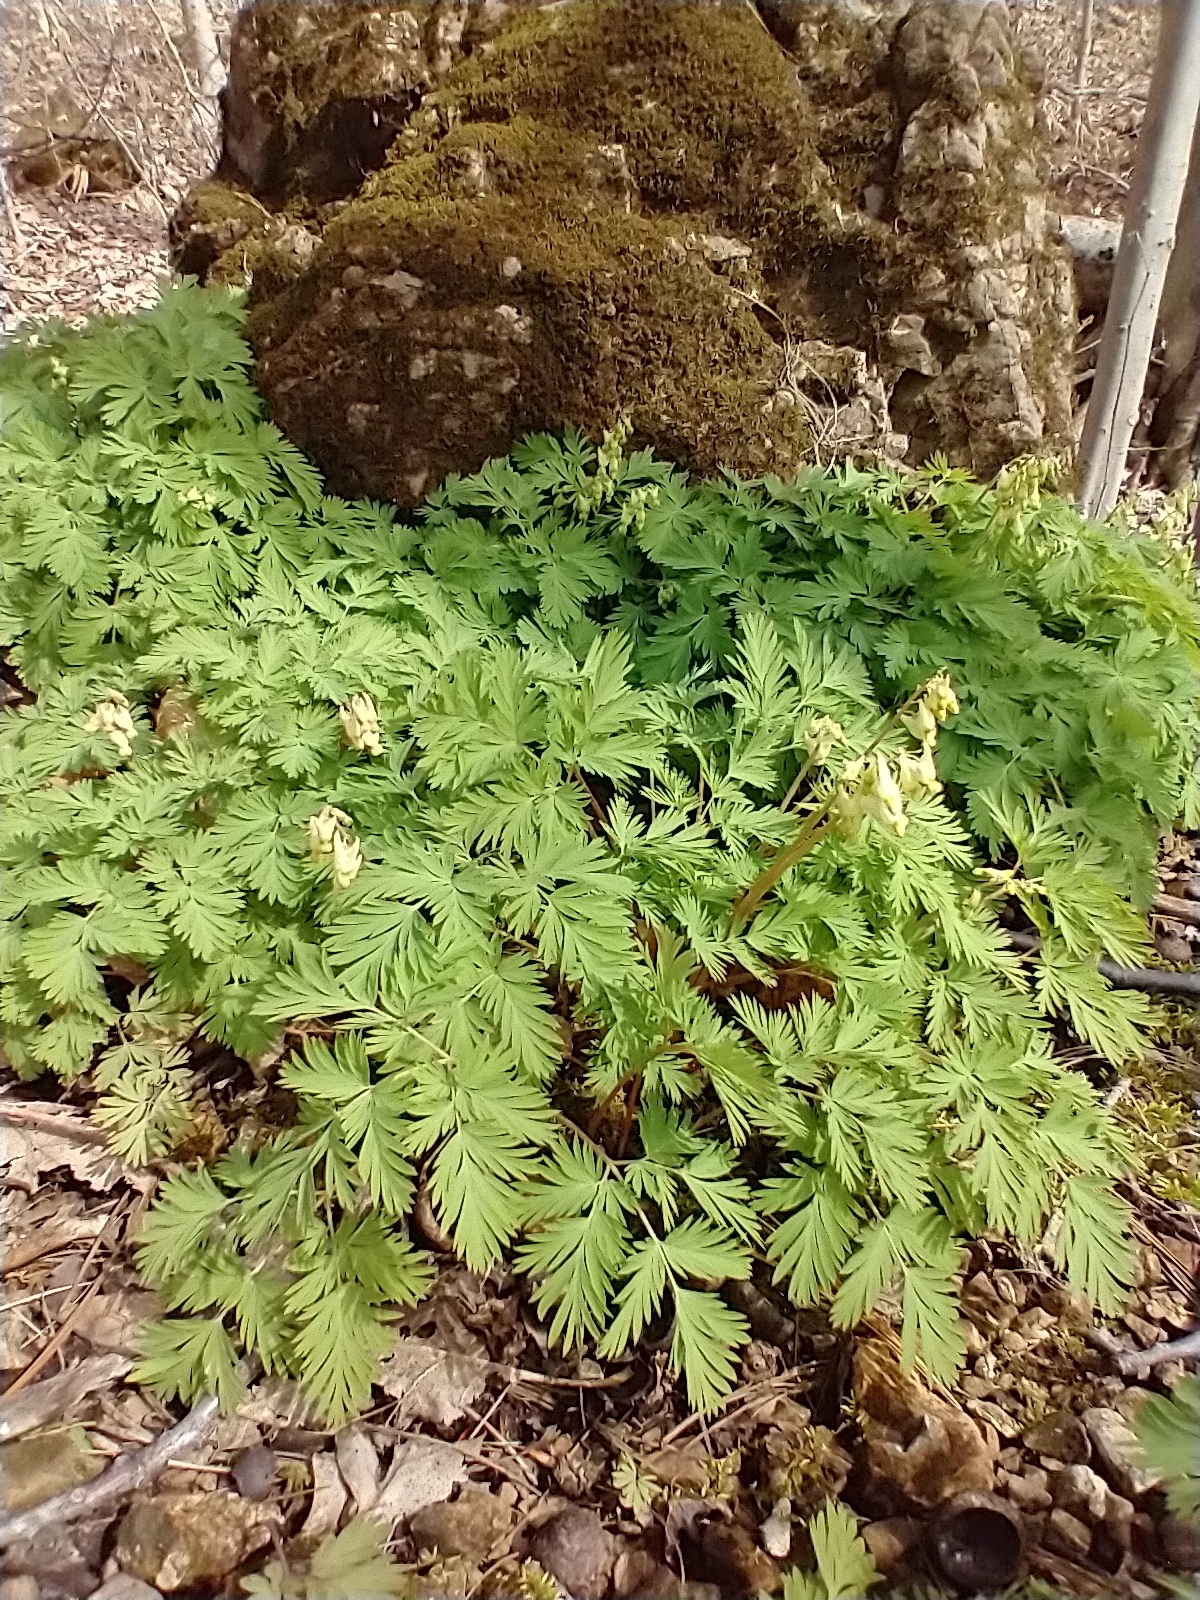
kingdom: Plantae
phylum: Tracheophyta
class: Magnoliopsida
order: Ranunculales
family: Papaveraceae
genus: Dicentra
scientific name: Dicentra cucullaria
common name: Dutchman's breeches
